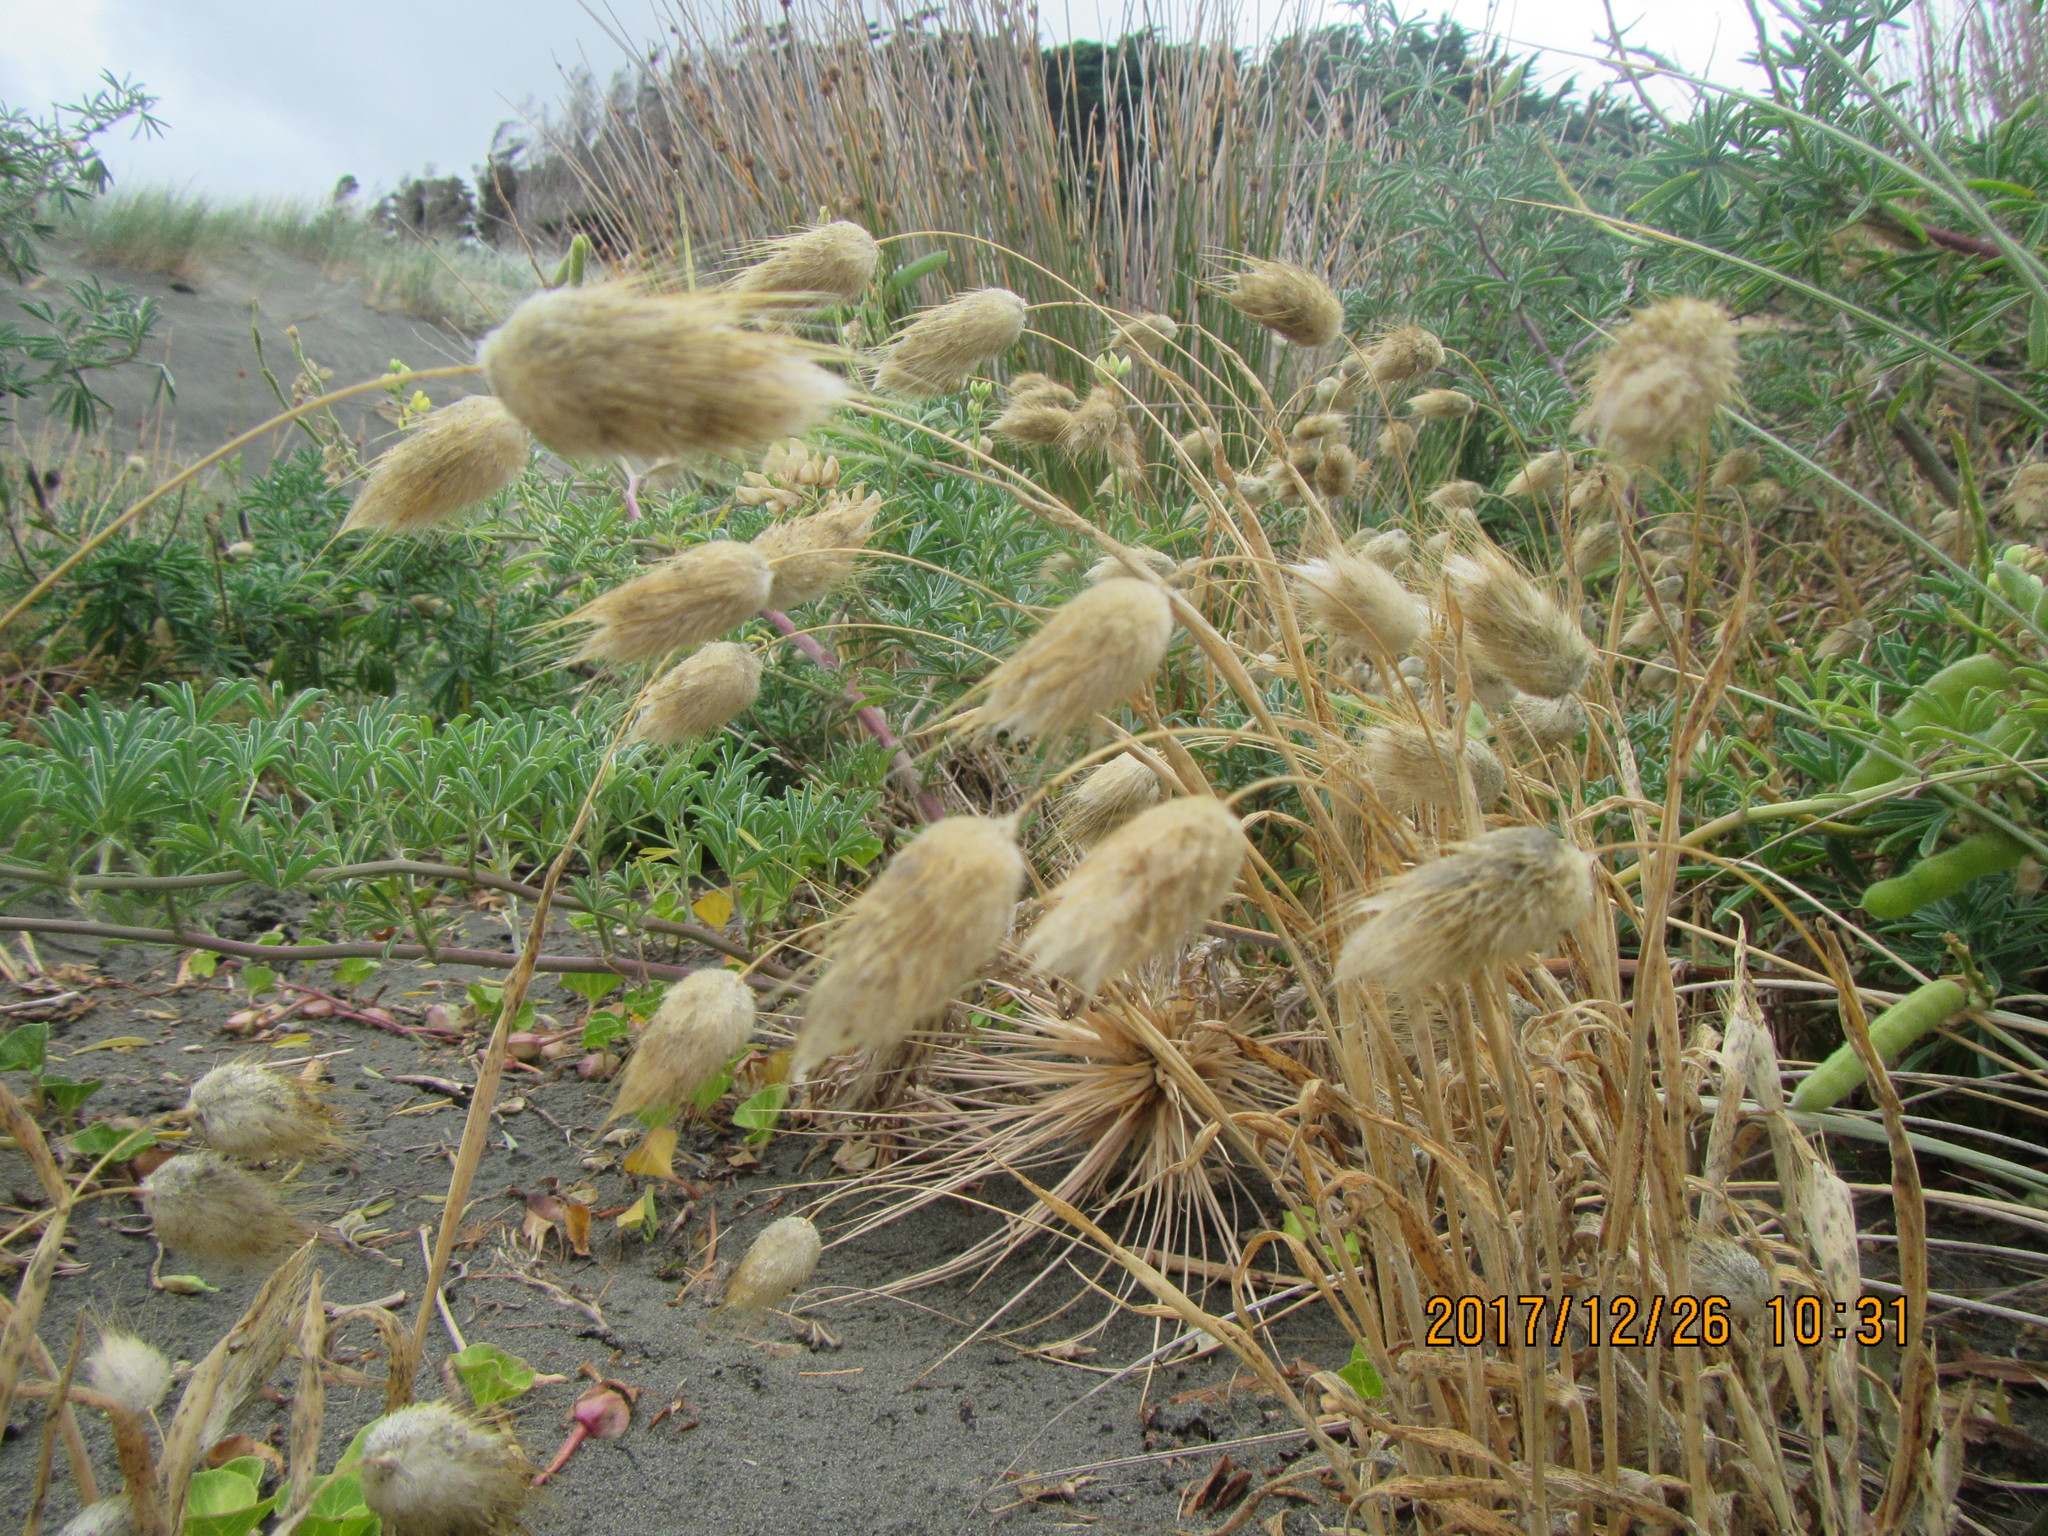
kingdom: Plantae
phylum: Tracheophyta
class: Liliopsida
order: Poales
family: Poaceae
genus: Lagurus
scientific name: Lagurus ovatus
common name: Hare's-tail
